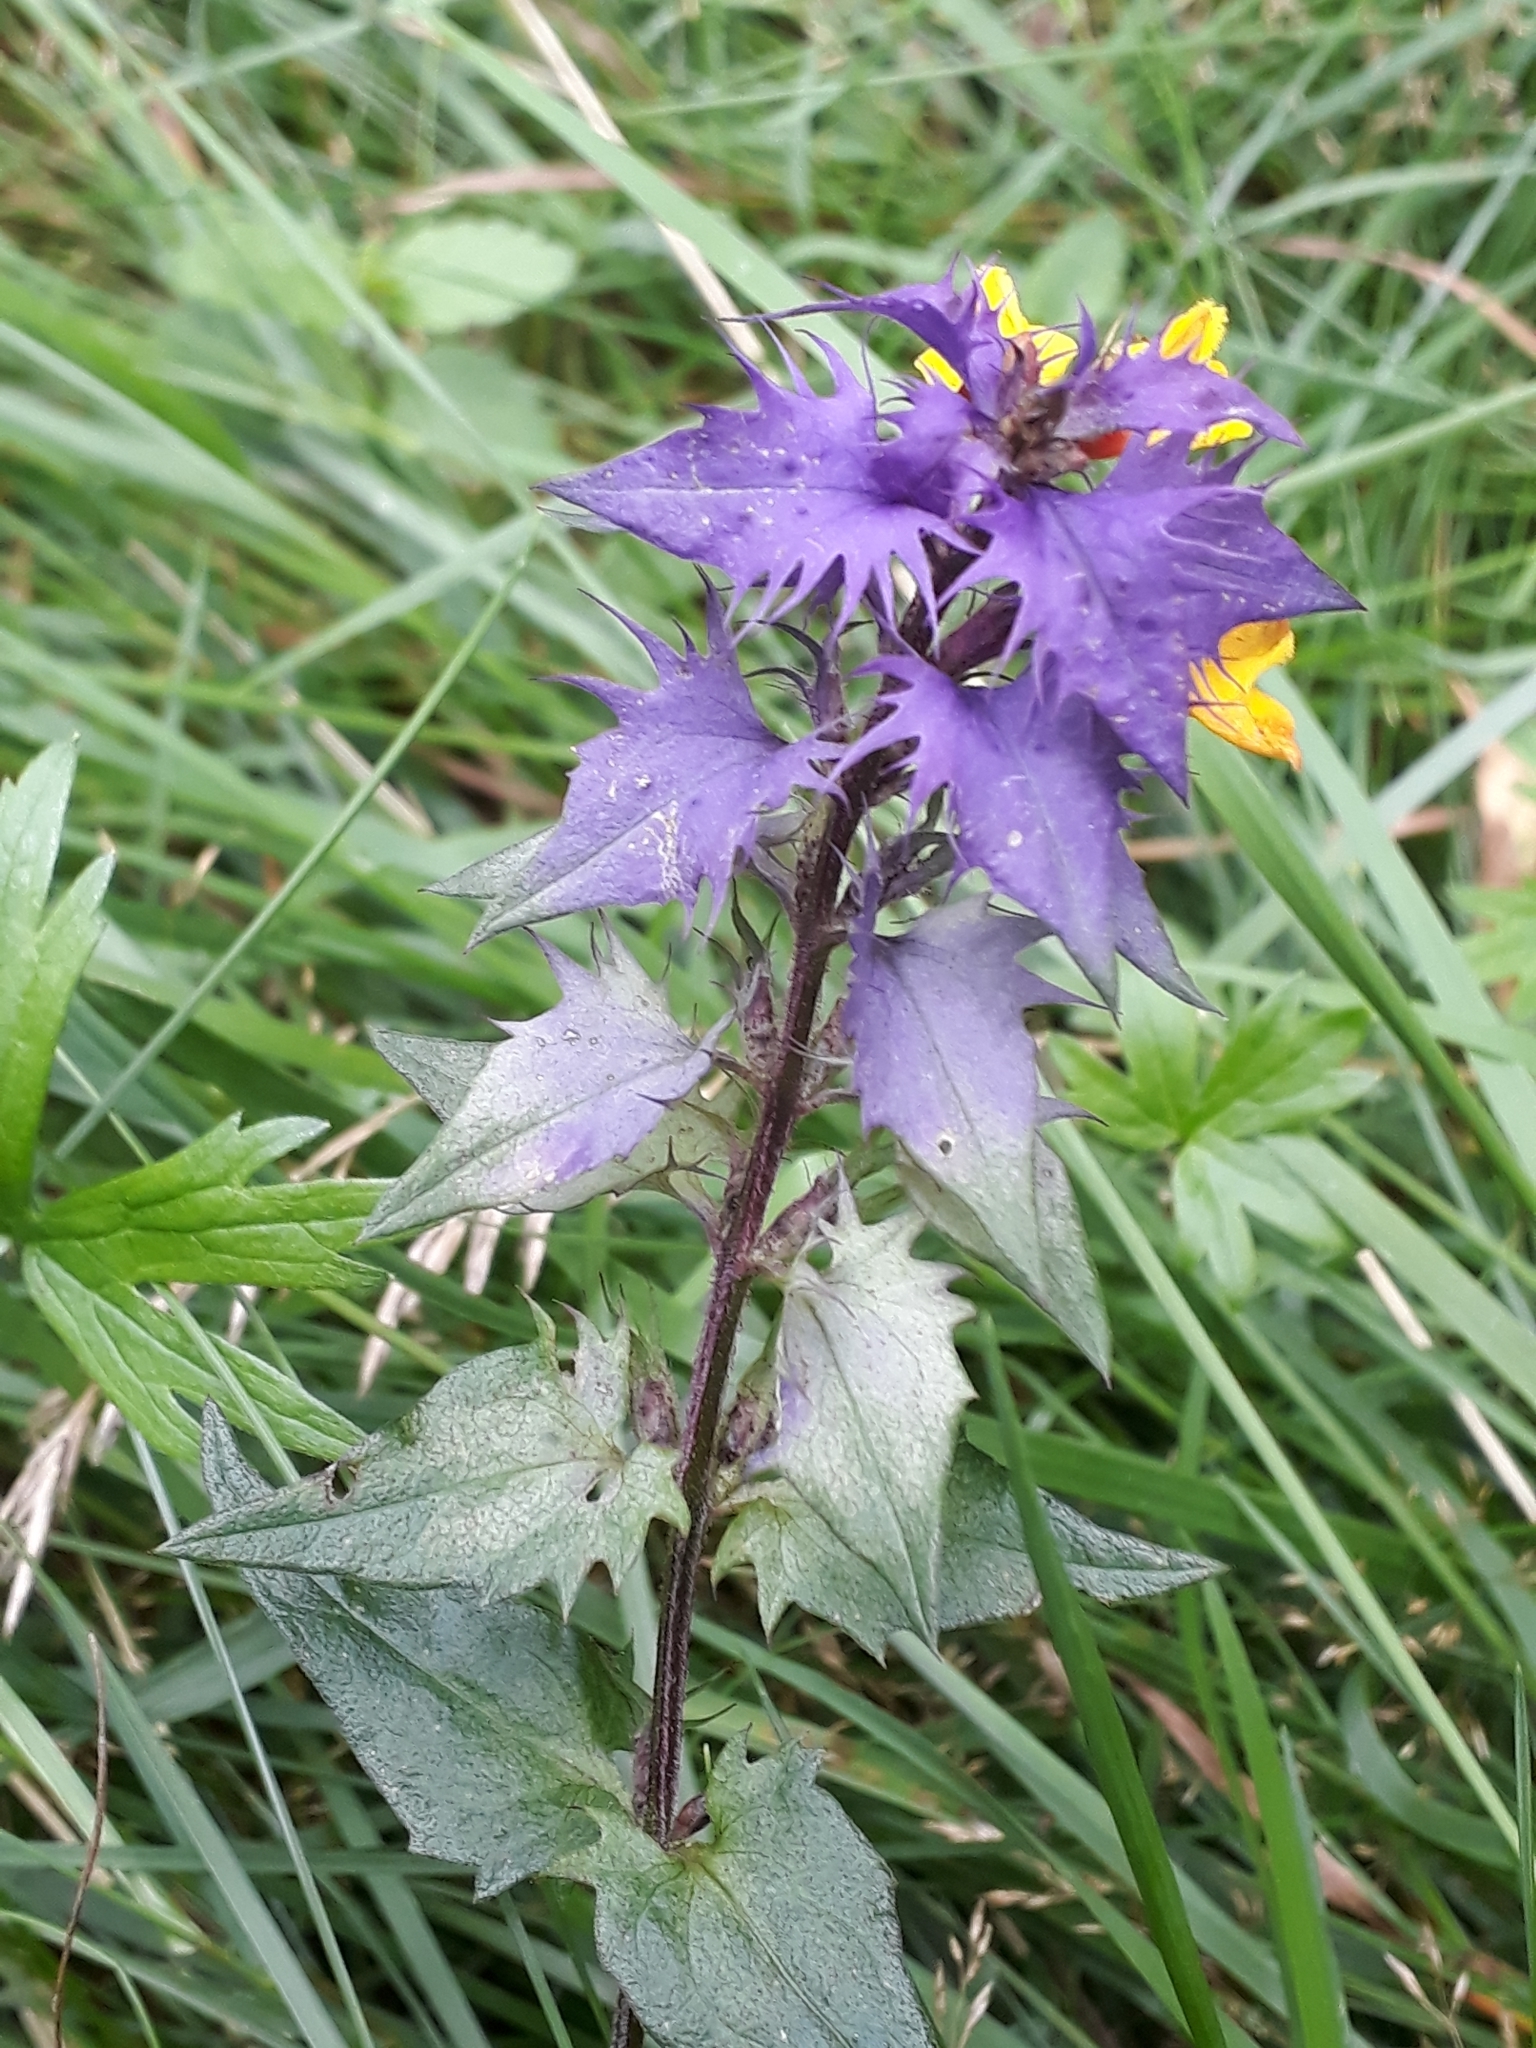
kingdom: Plantae
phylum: Tracheophyta
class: Magnoliopsida
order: Lamiales
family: Orobanchaceae
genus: Melampyrum
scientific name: Melampyrum nemorosum
